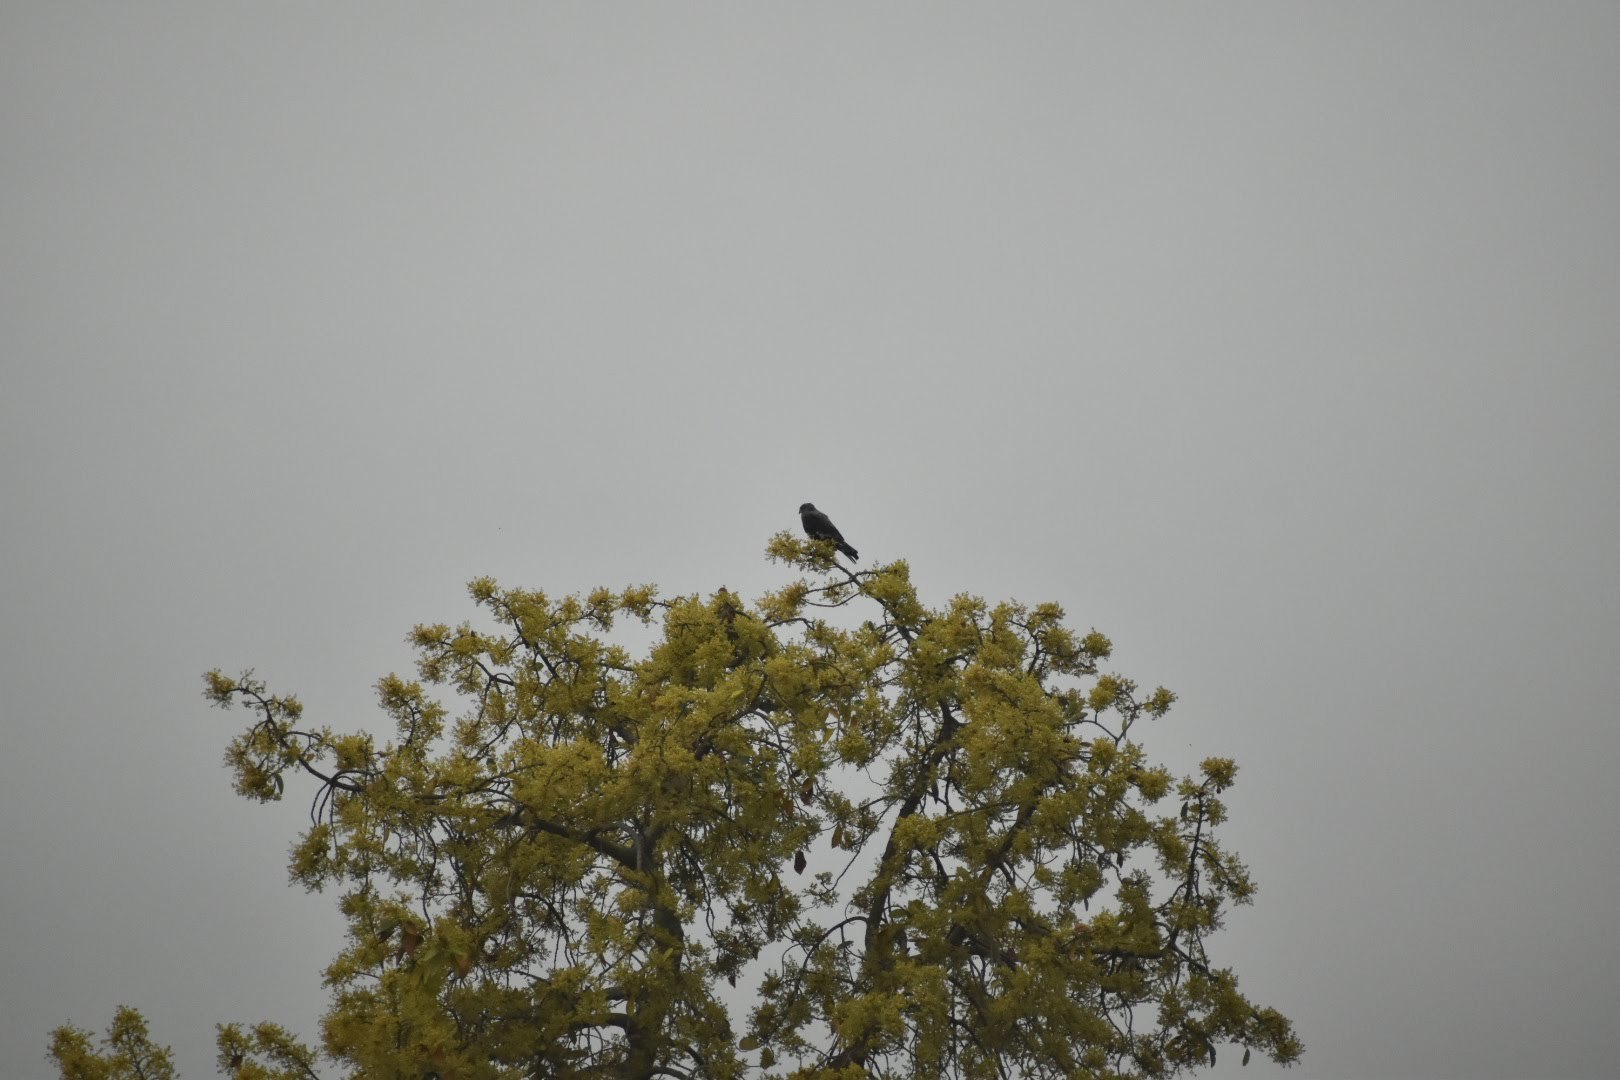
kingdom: Animalia
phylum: Chordata
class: Aves
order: Accipitriformes
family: Accipitridae
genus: Rostrhamus
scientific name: Rostrhamus sociabilis
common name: Snail kite
